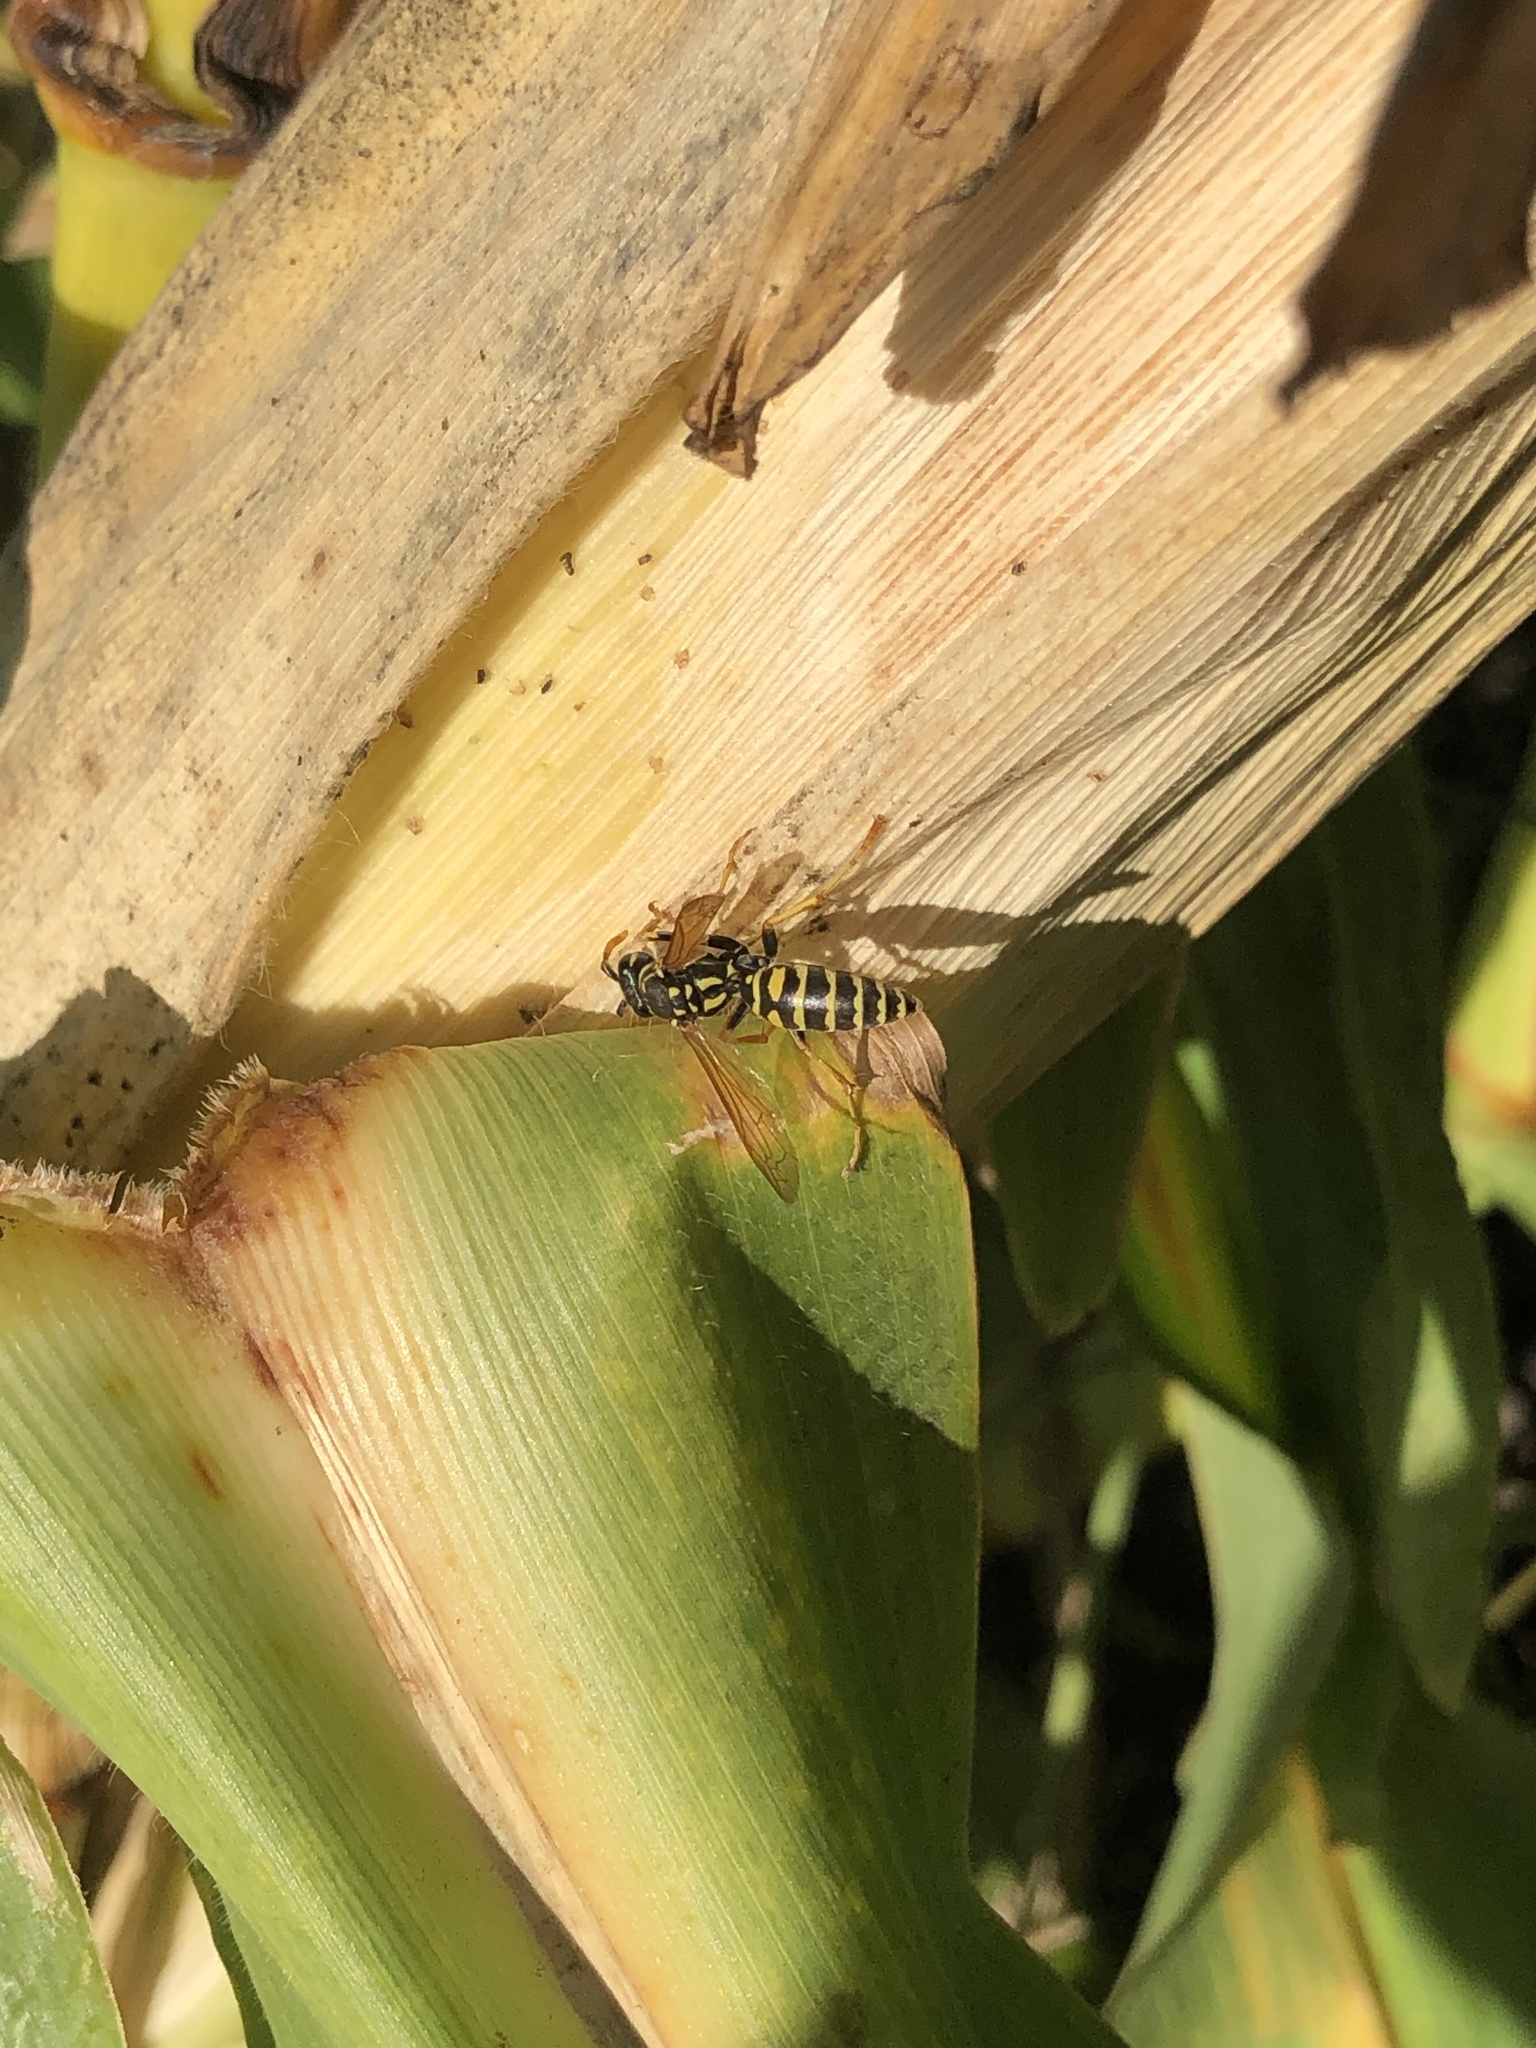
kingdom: Animalia
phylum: Arthropoda
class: Insecta
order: Hymenoptera
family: Eumenidae
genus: Polistes
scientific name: Polistes dominula
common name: Paper wasp
